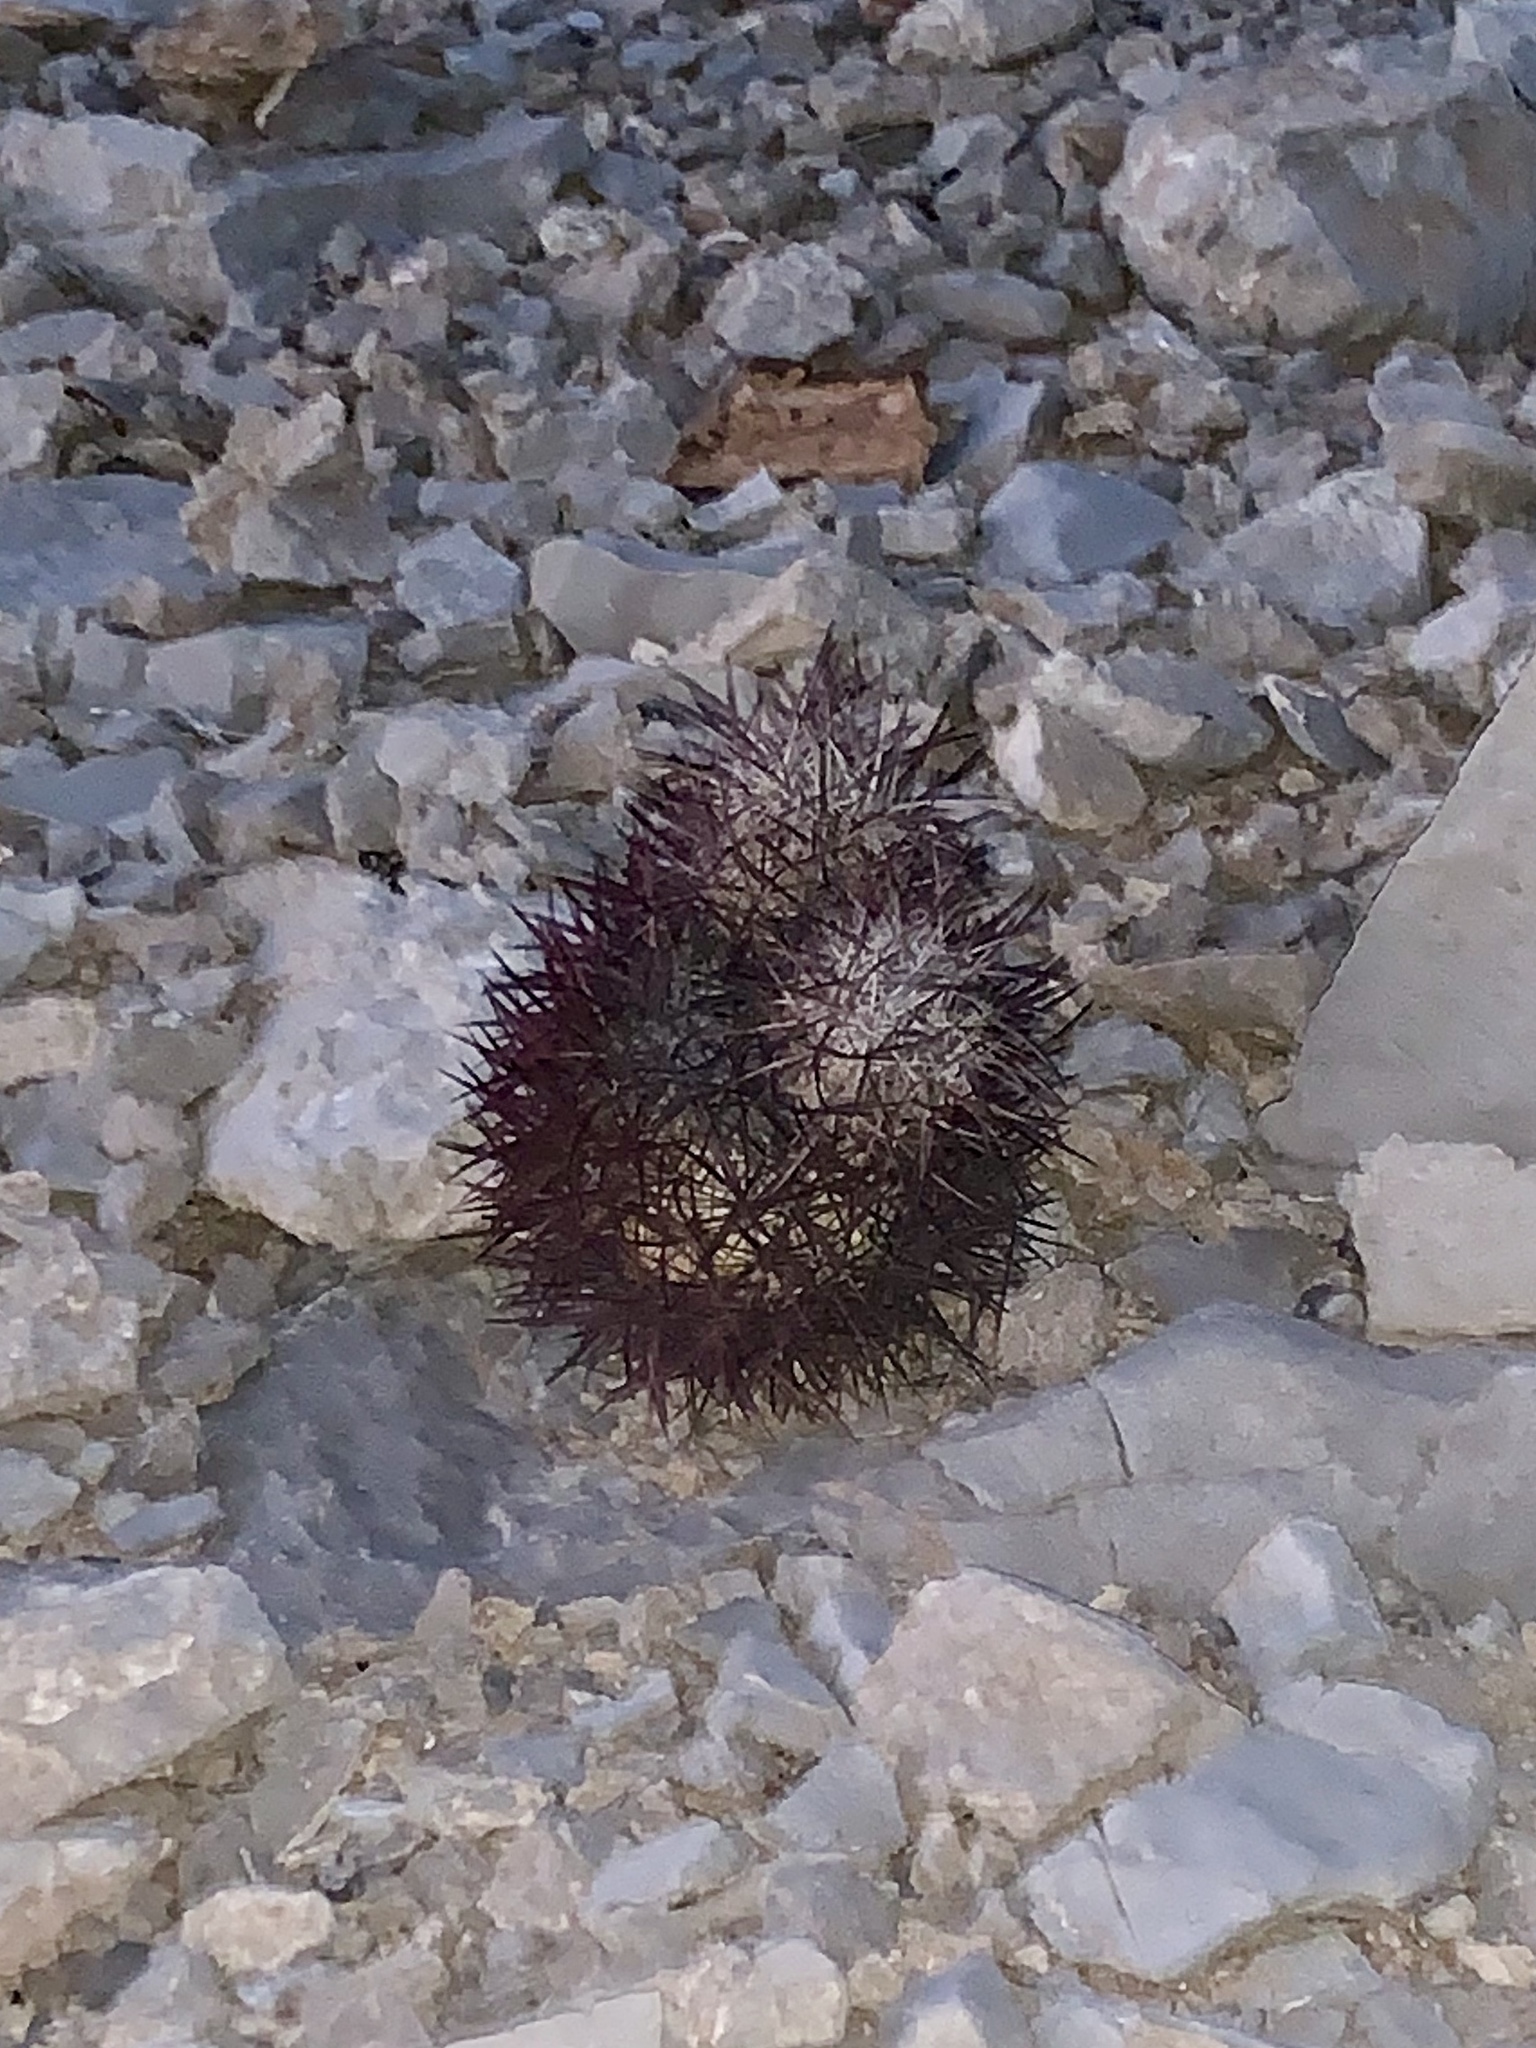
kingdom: Plantae
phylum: Tracheophyta
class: Magnoliopsida
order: Caryophyllales
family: Cactaceae
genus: Sclerocactus
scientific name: Sclerocactus johnsonii
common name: Eight-spine fishhook cactus
